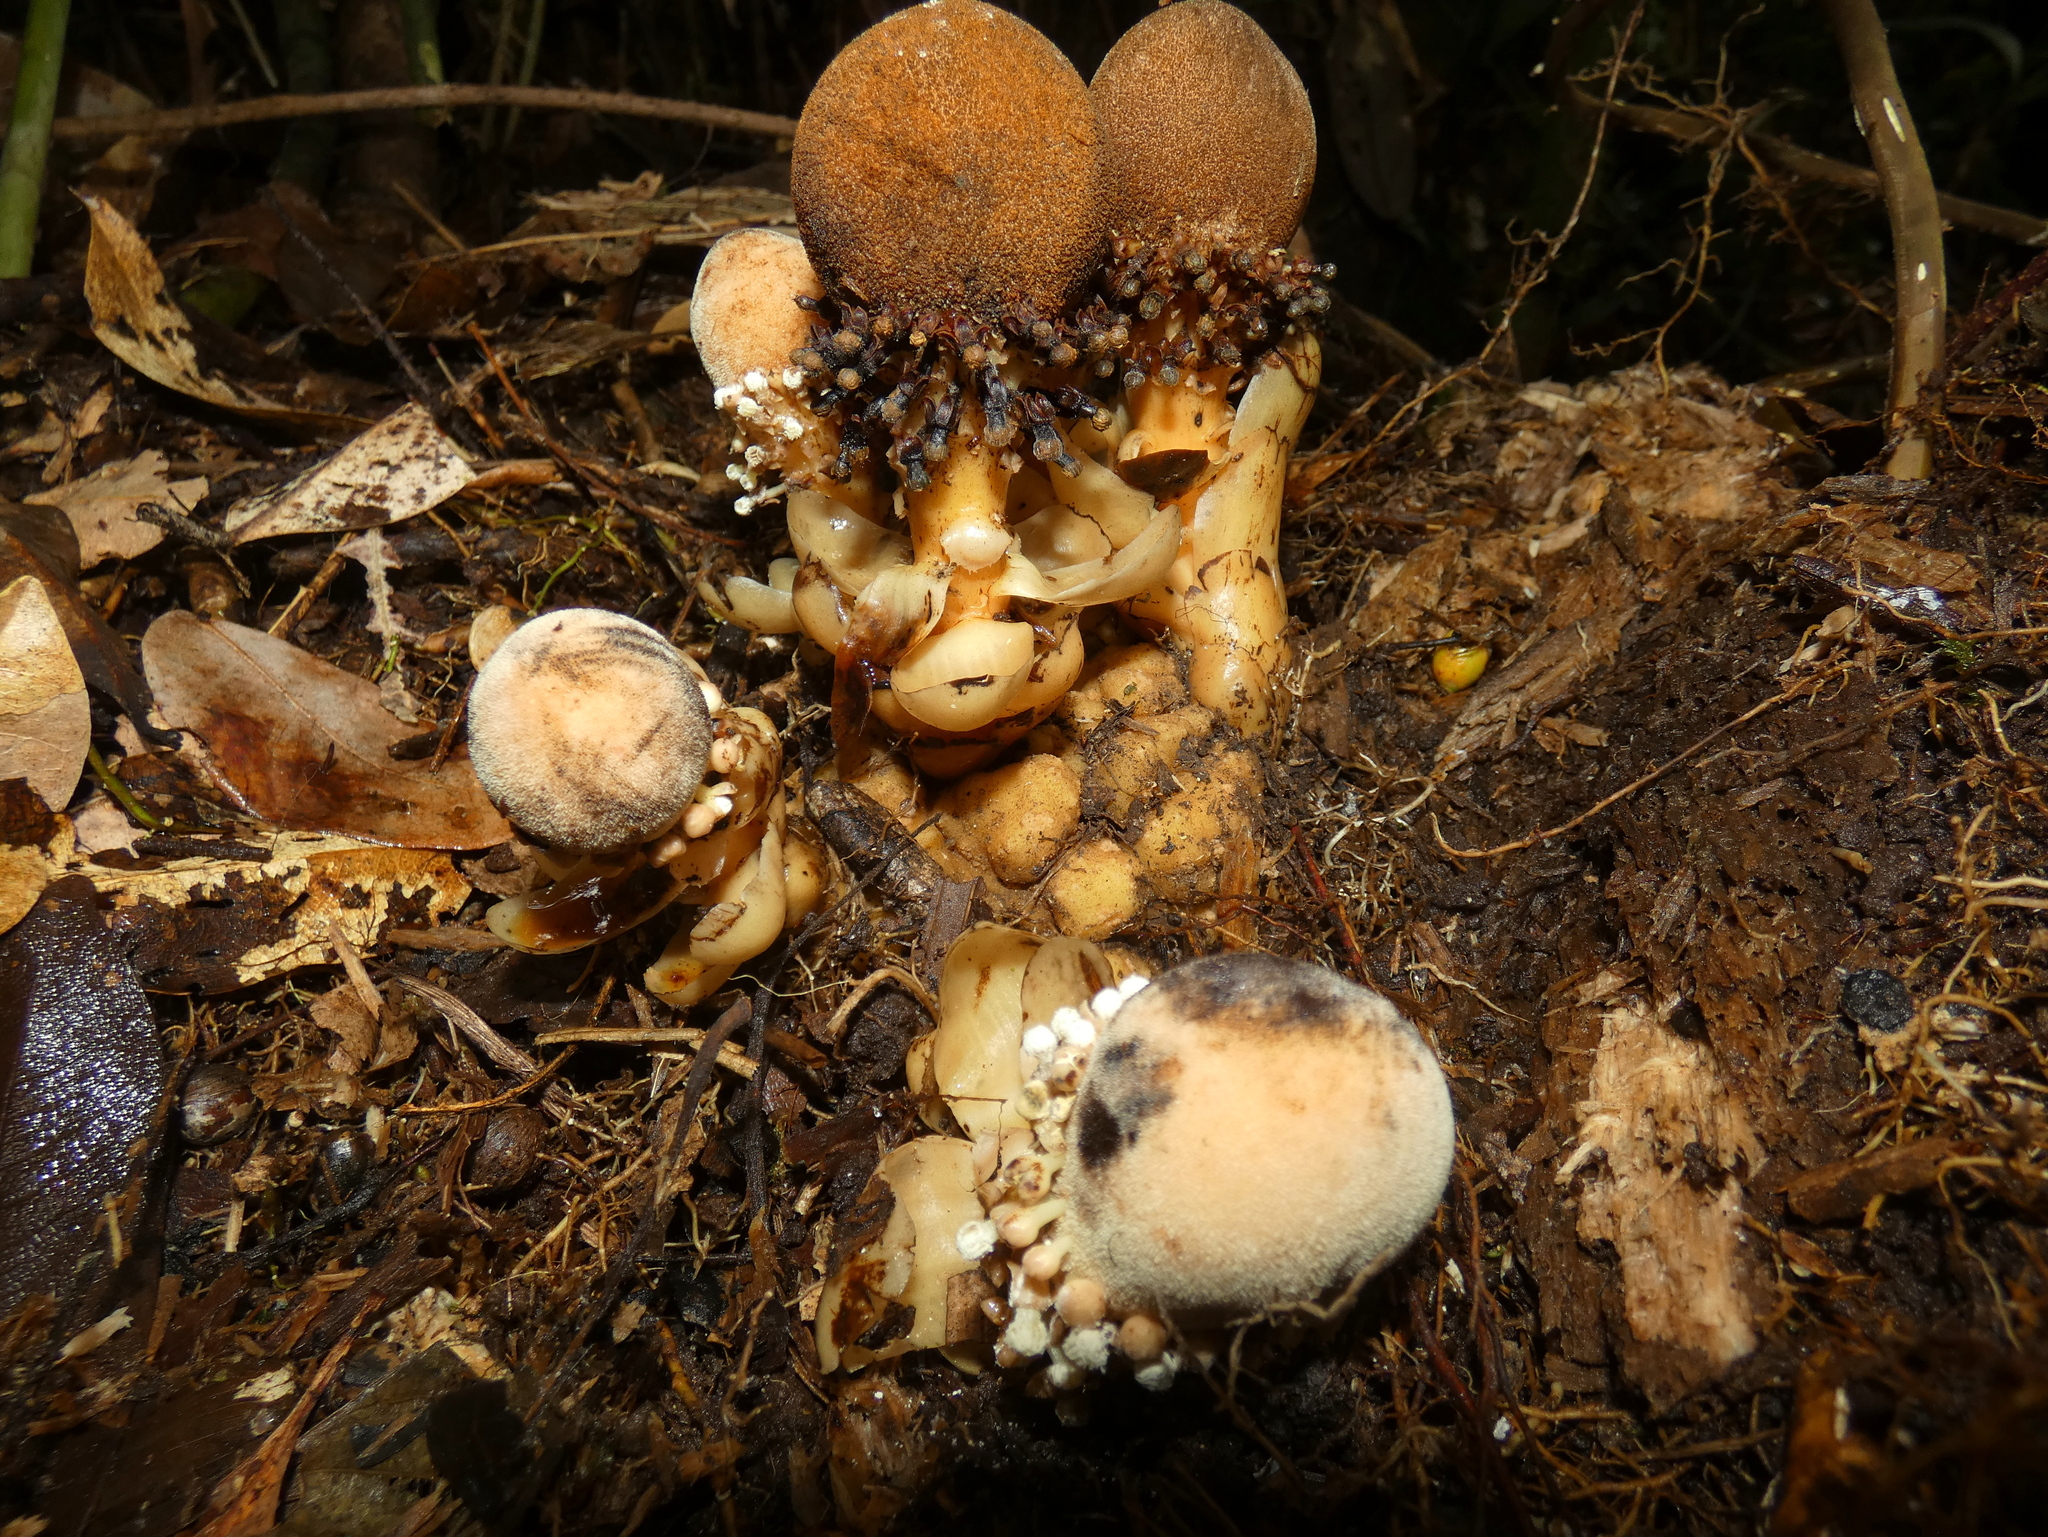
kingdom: Plantae
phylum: Tracheophyta
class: Magnoliopsida
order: Santalales
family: Balanophoraceae
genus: Balanophora
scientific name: Balanophora fungosa
